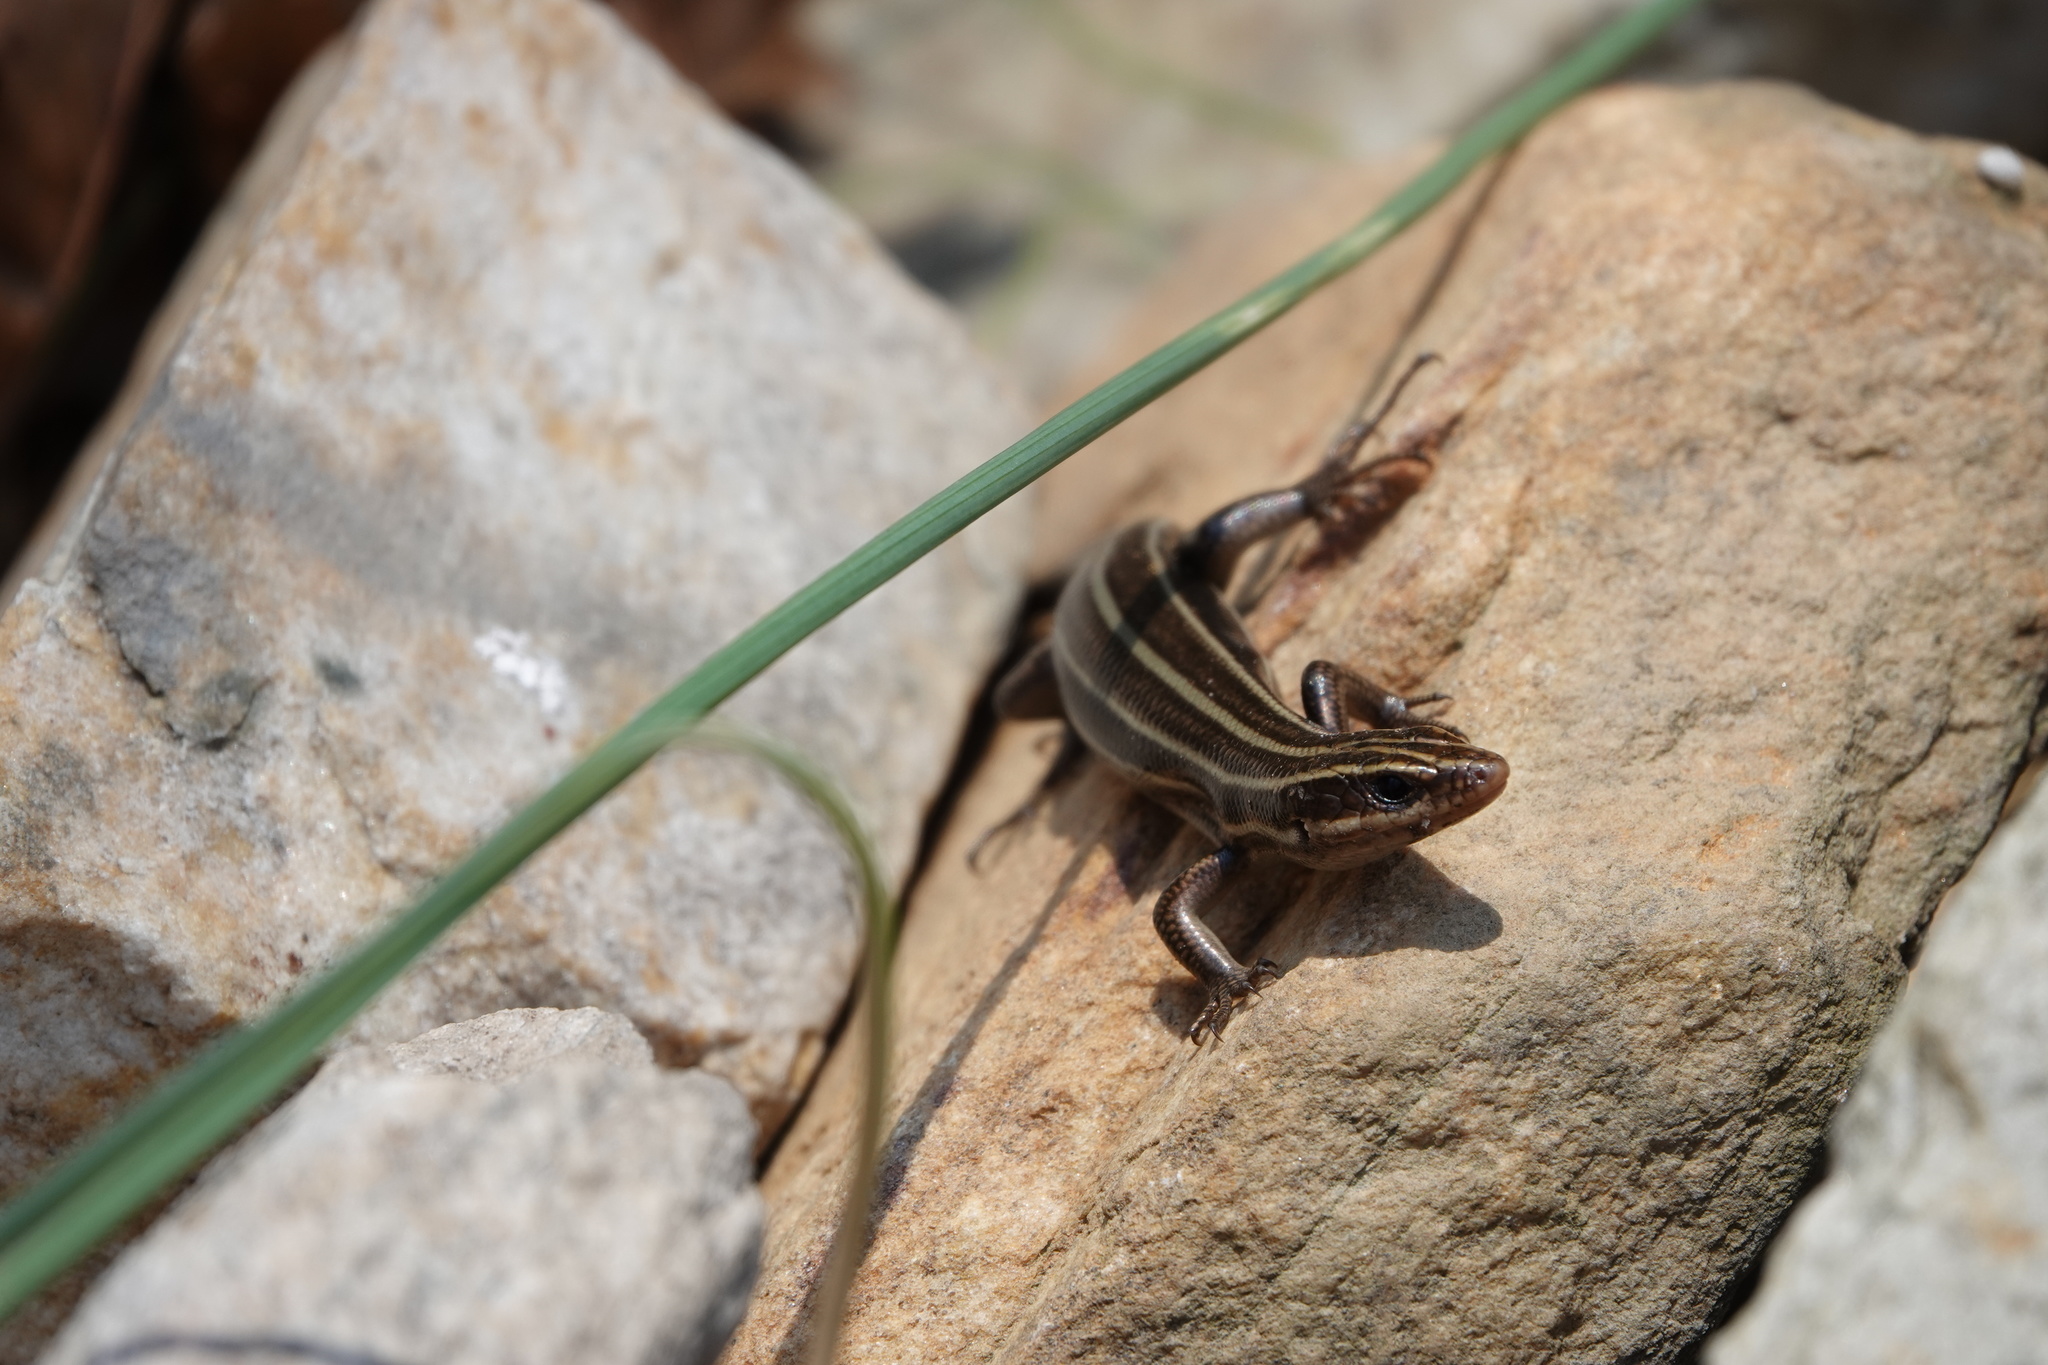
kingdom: Animalia
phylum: Chordata
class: Squamata
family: Scincidae
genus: Plestiodon
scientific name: Plestiodon fasciatus
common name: Five-lined skink
